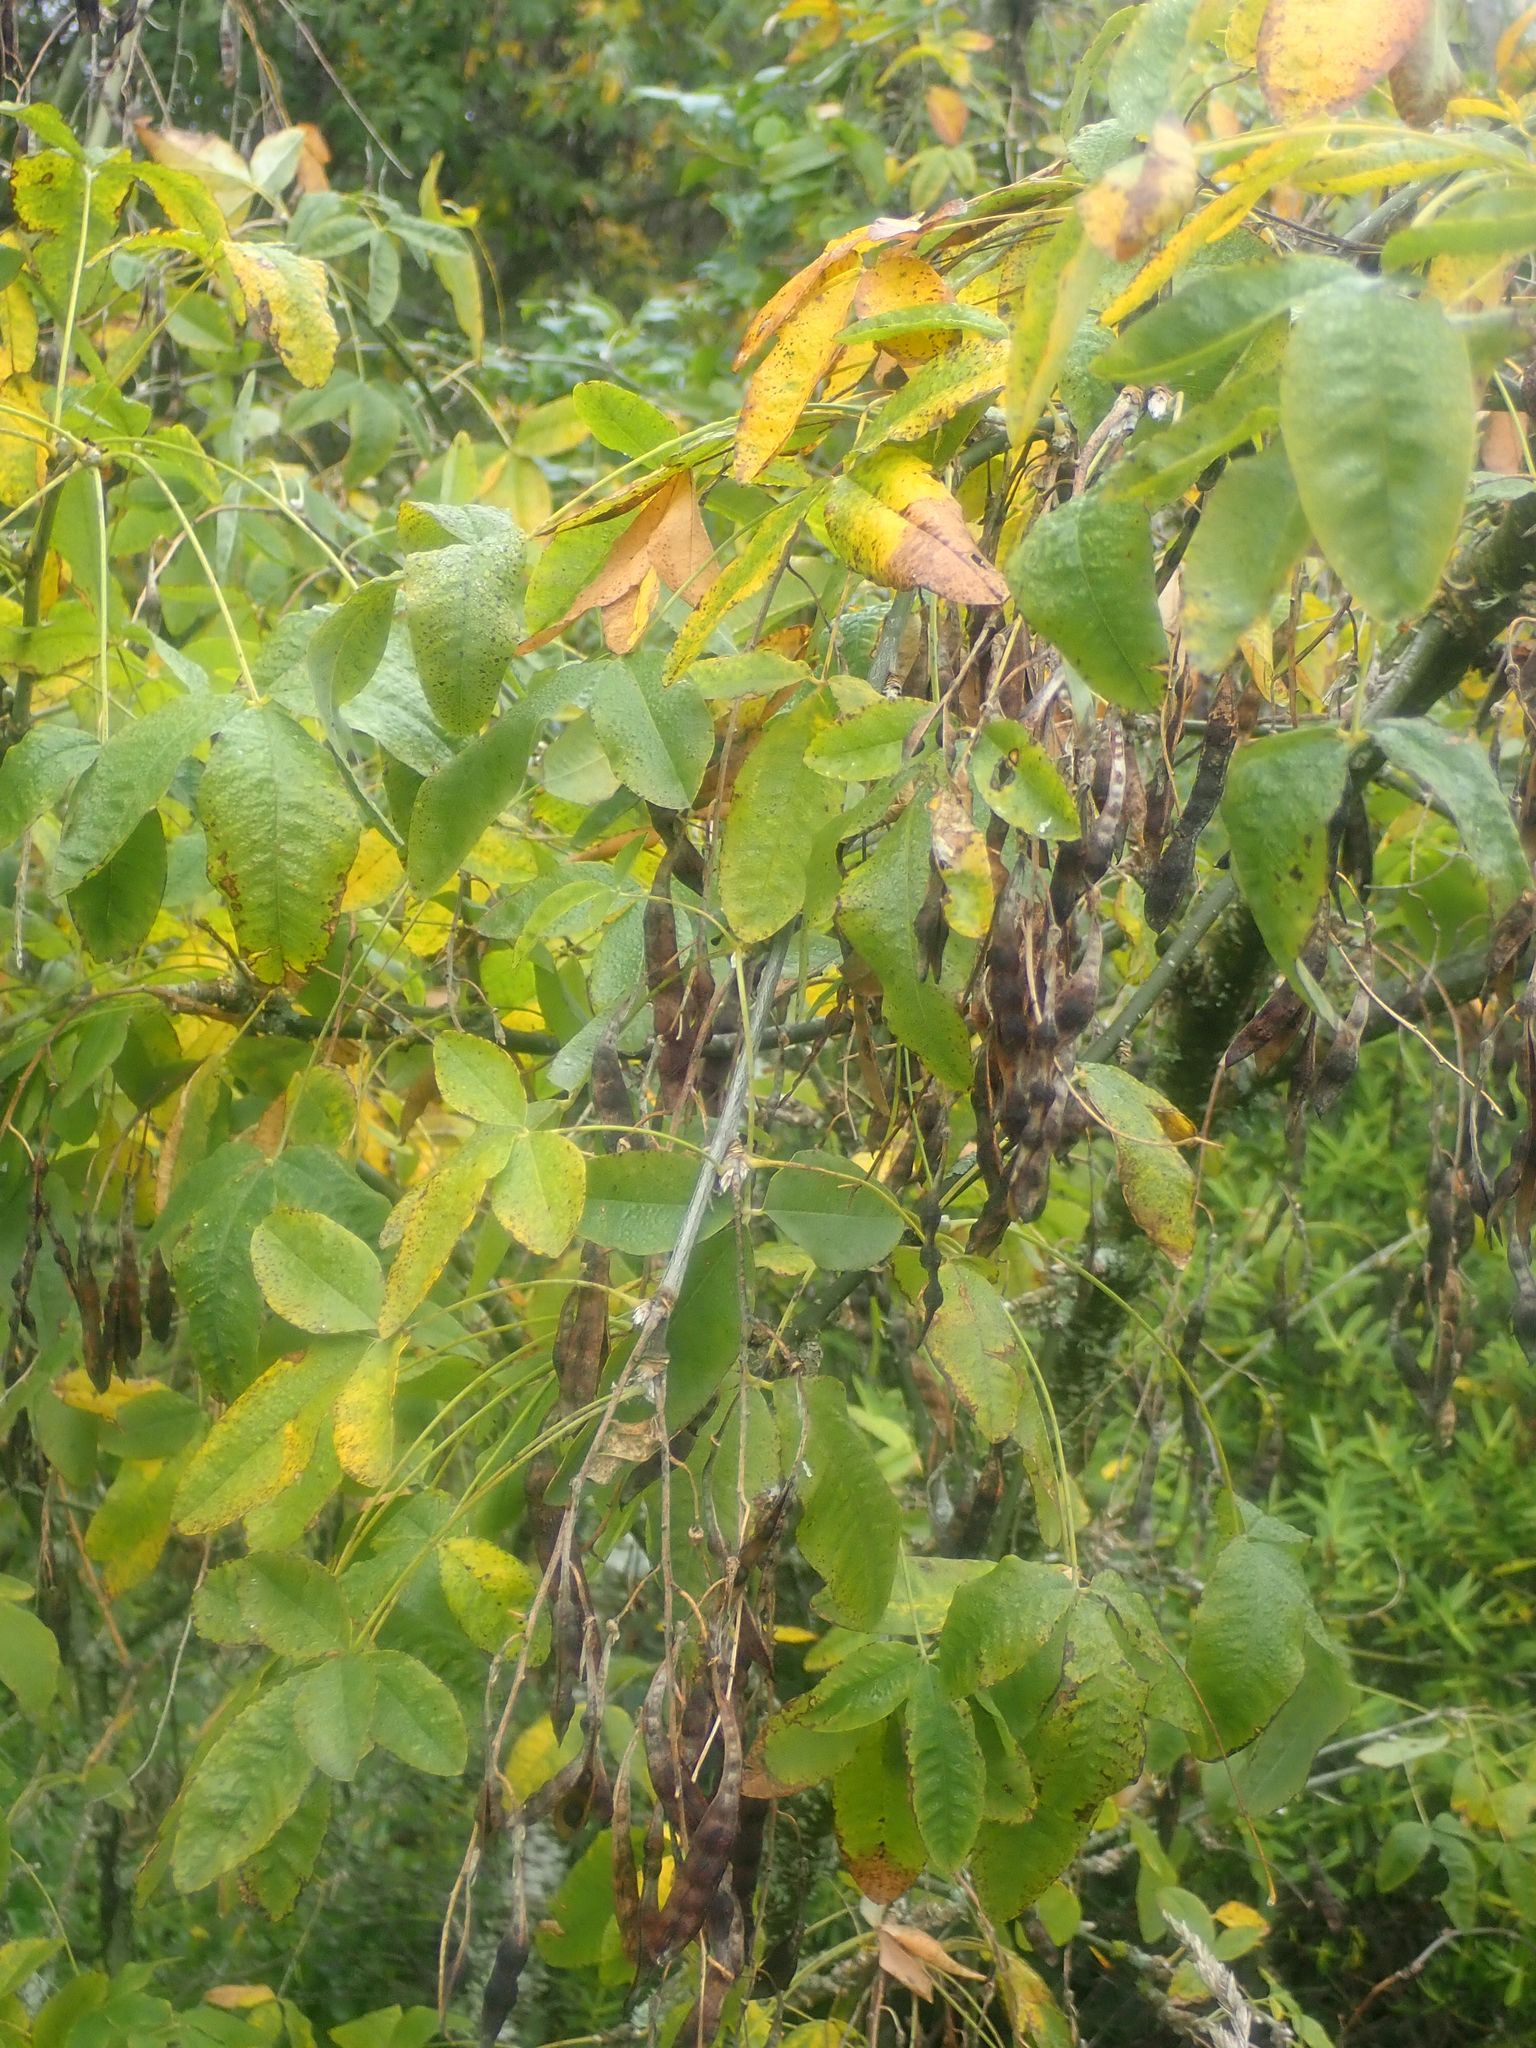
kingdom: Plantae
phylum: Tracheophyta
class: Magnoliopsida
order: Fabales
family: Fabaceae
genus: Laburnum
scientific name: Laburnum anagyroides
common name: Laburnum
